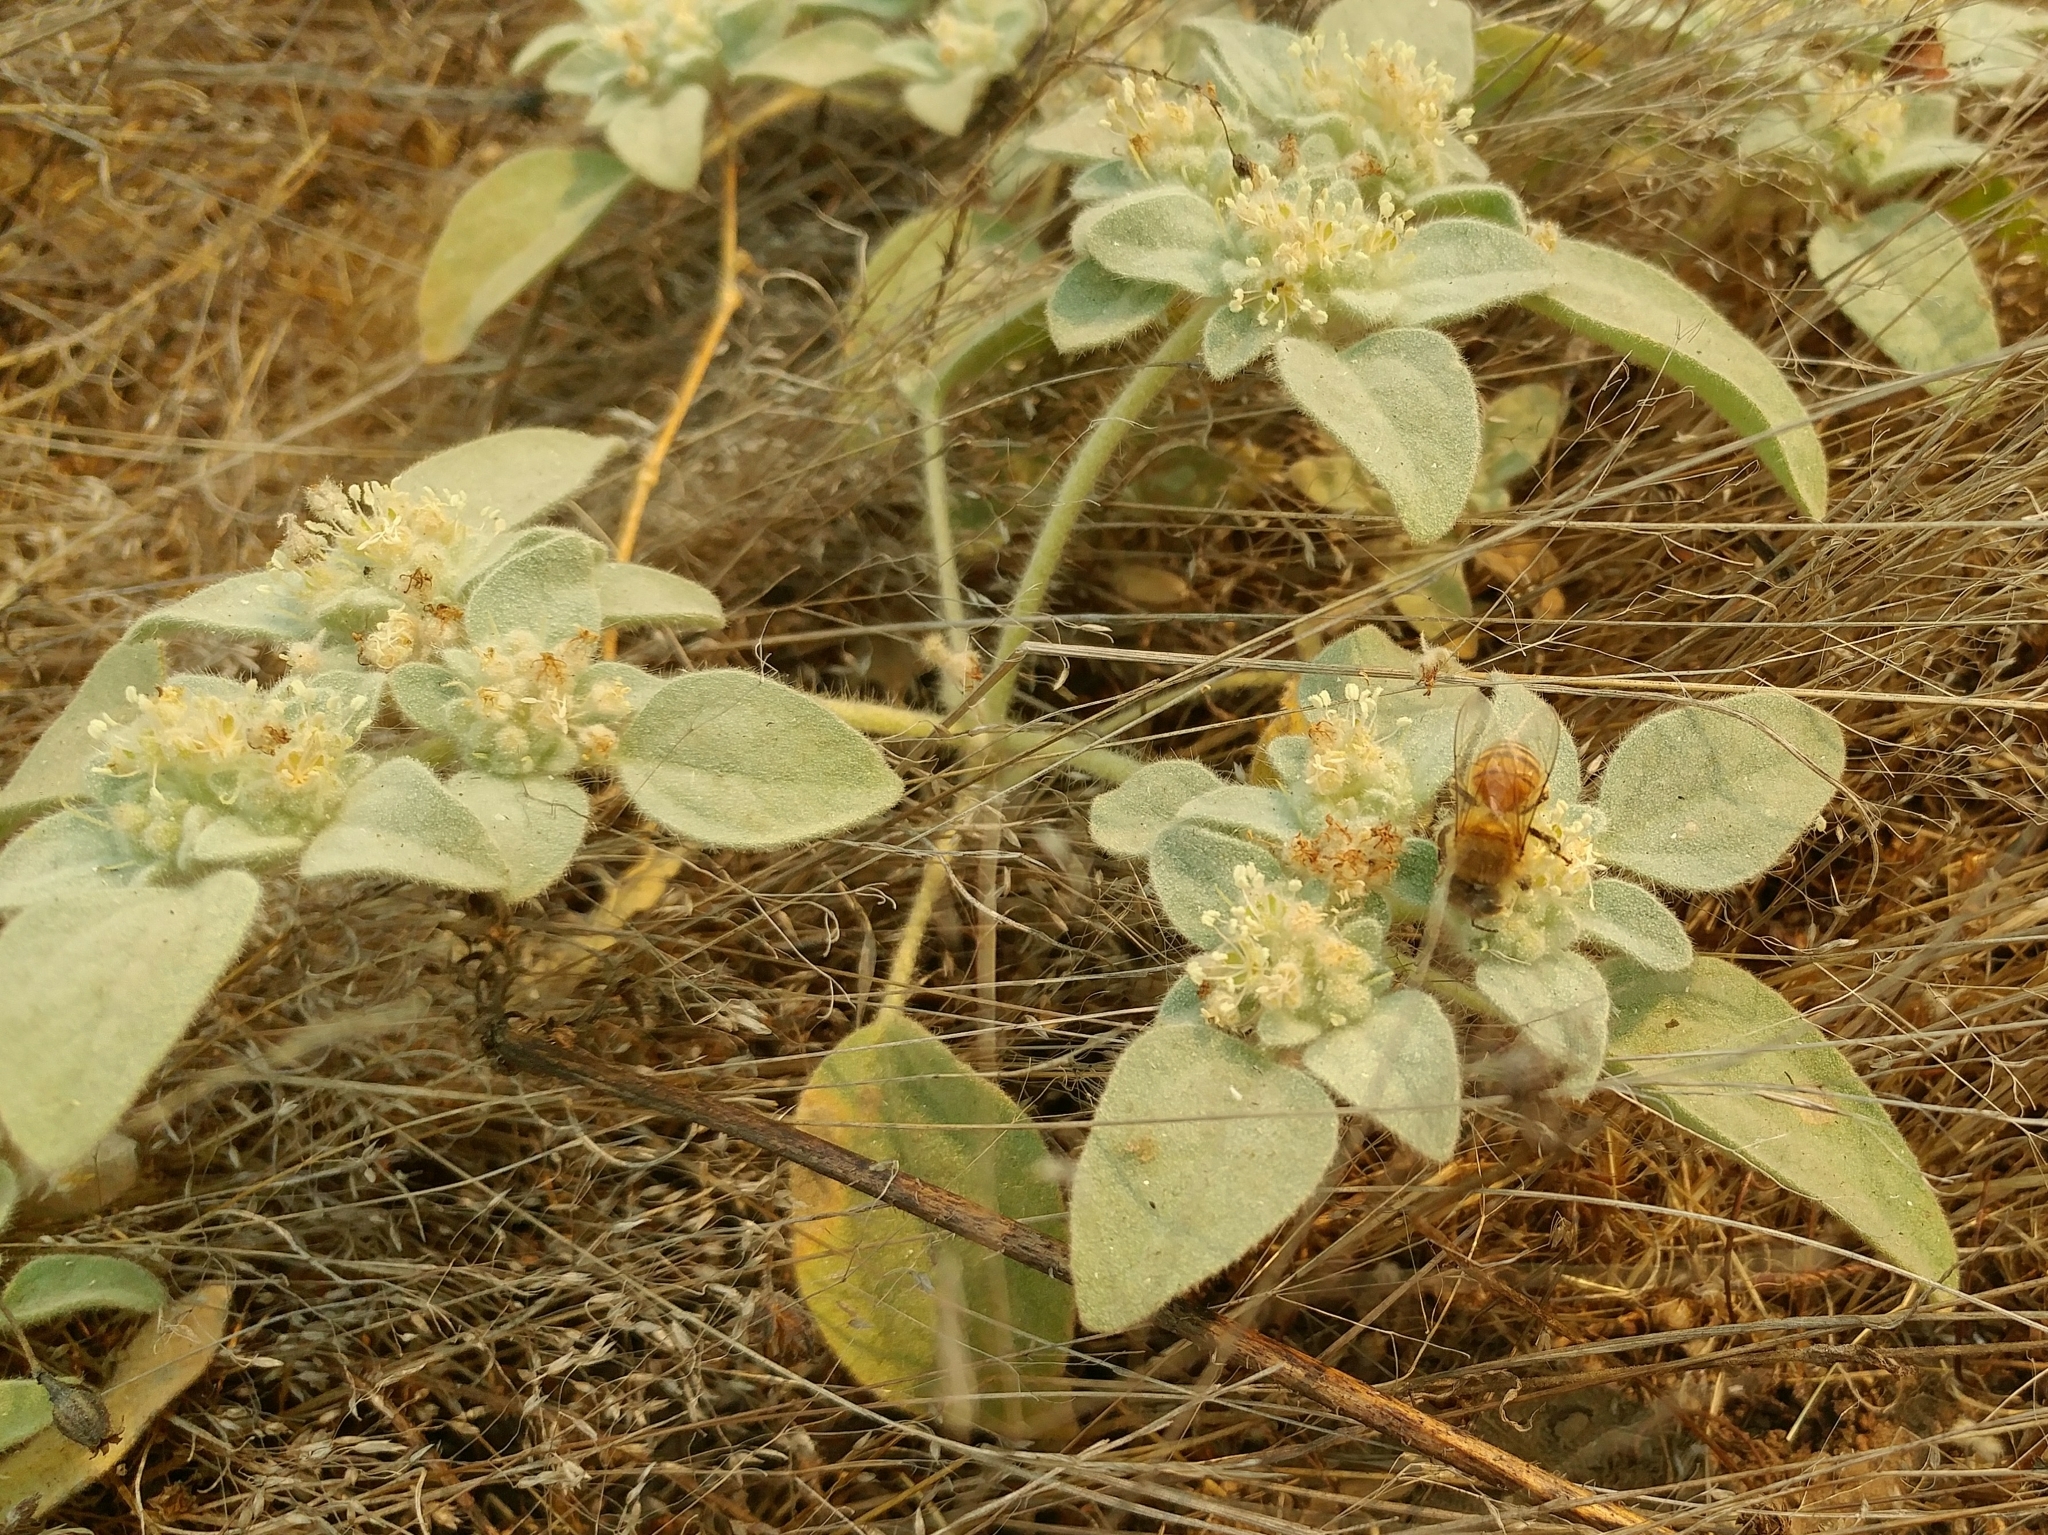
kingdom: Plantae
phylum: Tracheophyta
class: Magnoliopsida
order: Malpighiales
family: Euphorbiaceae
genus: Croton
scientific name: Croton setiger
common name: Dove weed
